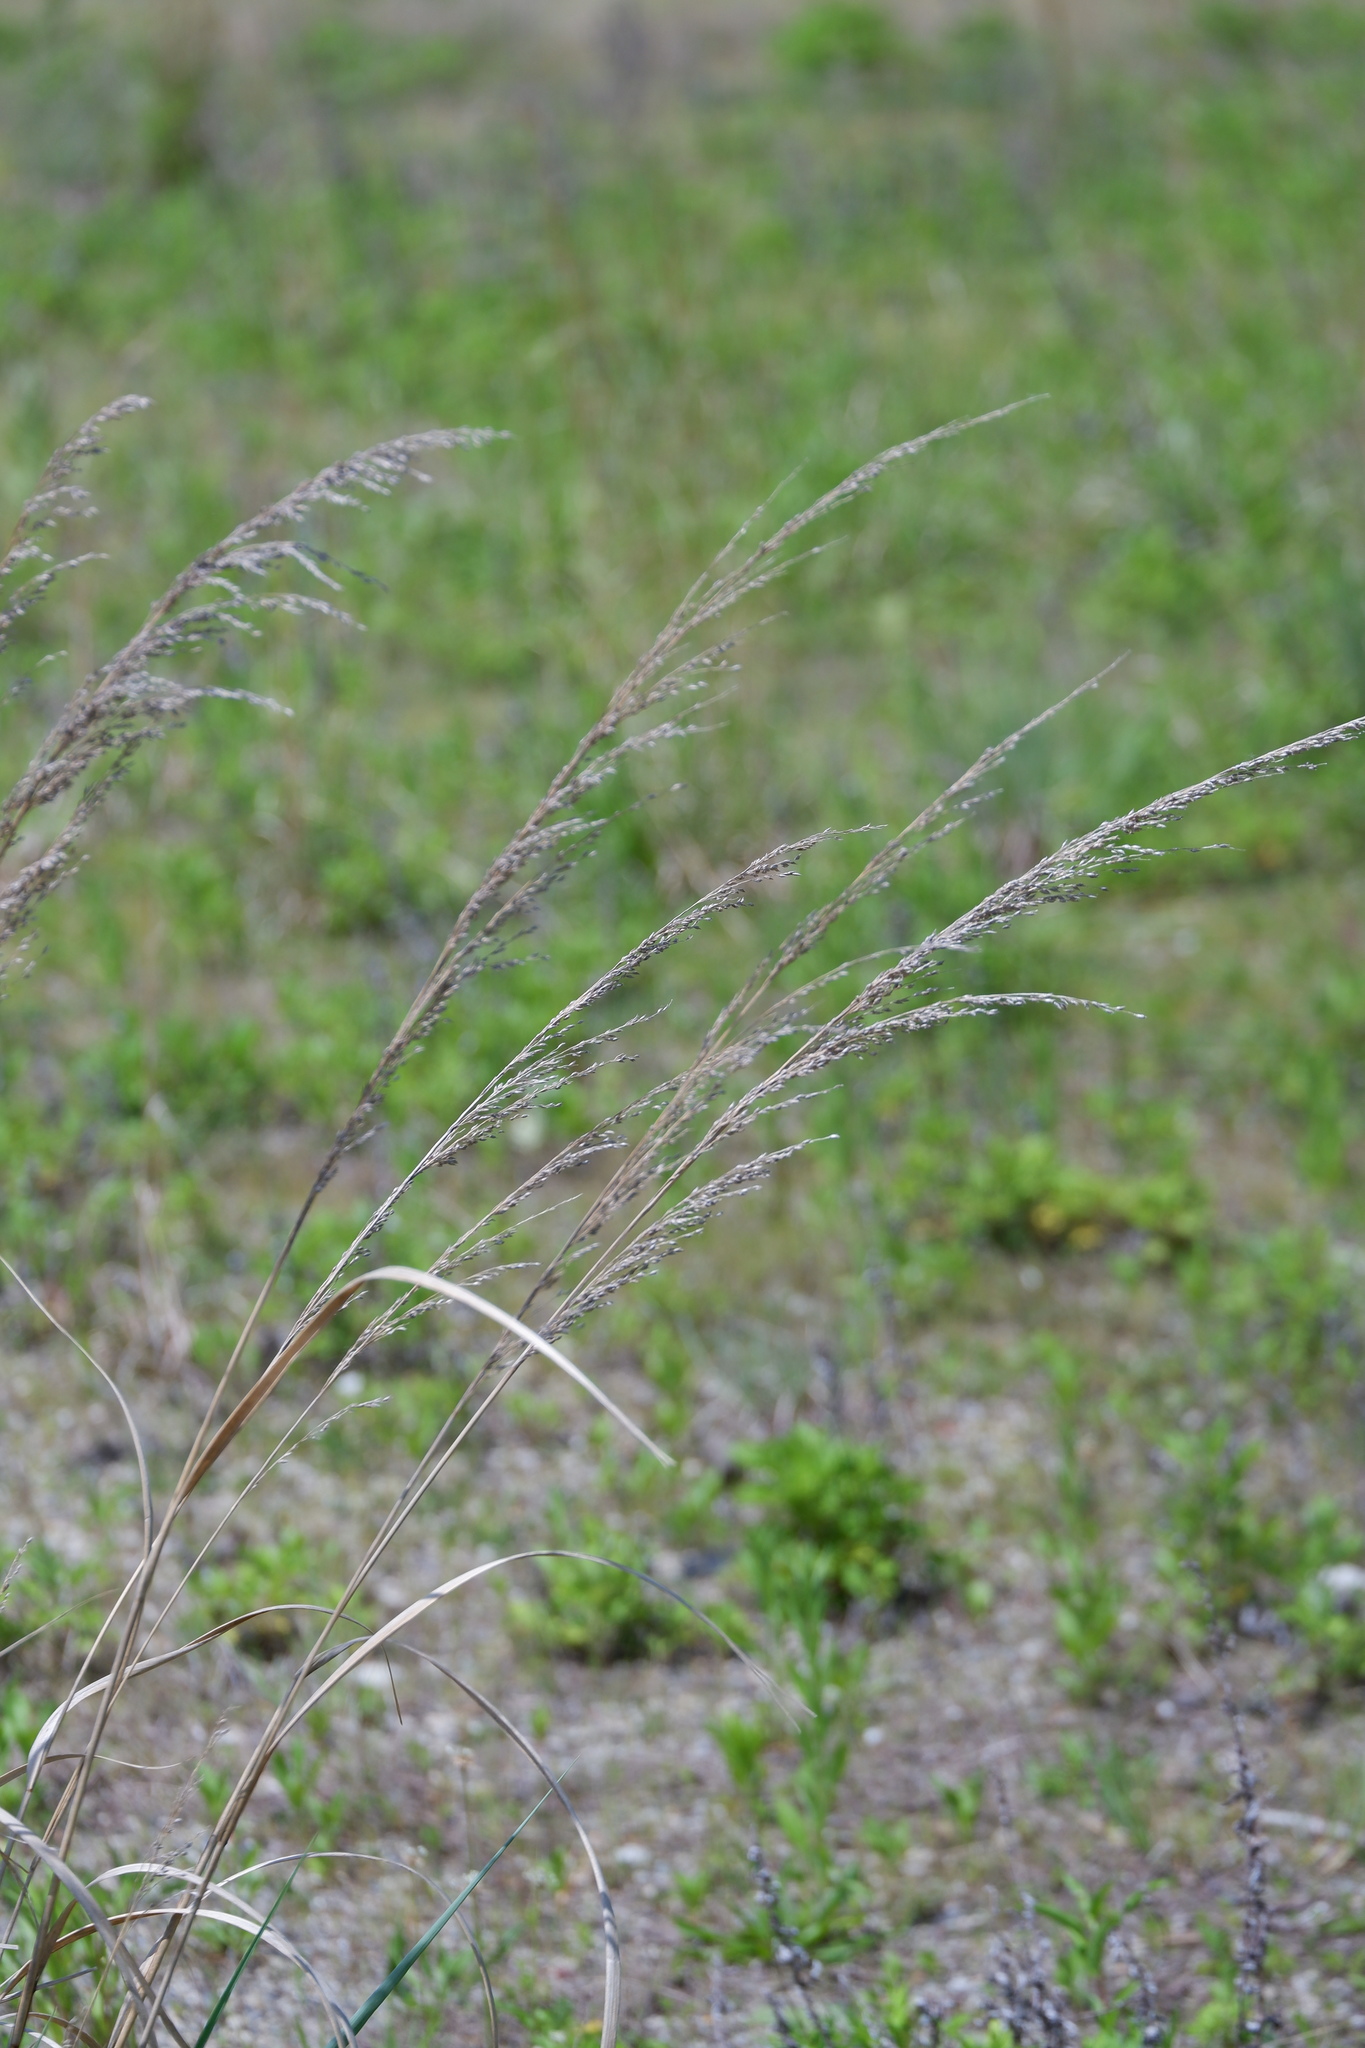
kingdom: Plantae
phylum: Tracheophyta
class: Liliopsida
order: Poales
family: Poaceae
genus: Panicum
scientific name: Panicum amarum
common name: Bitter panicum
